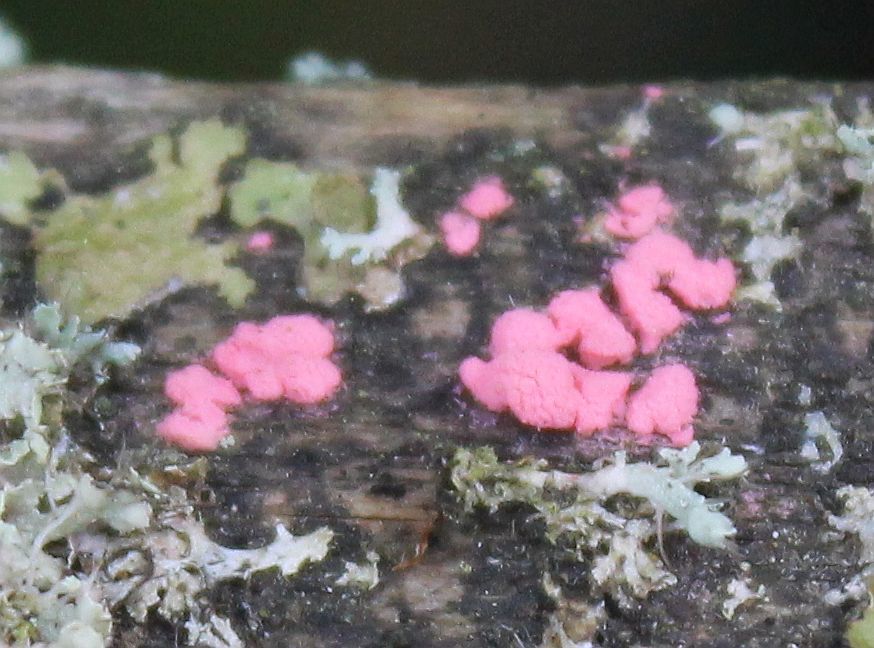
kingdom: Fungi
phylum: Ascomycota
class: Sordariomycetes
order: Hypocreales
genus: Illosporiopsis
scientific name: Illosporiopsis christiansenii
